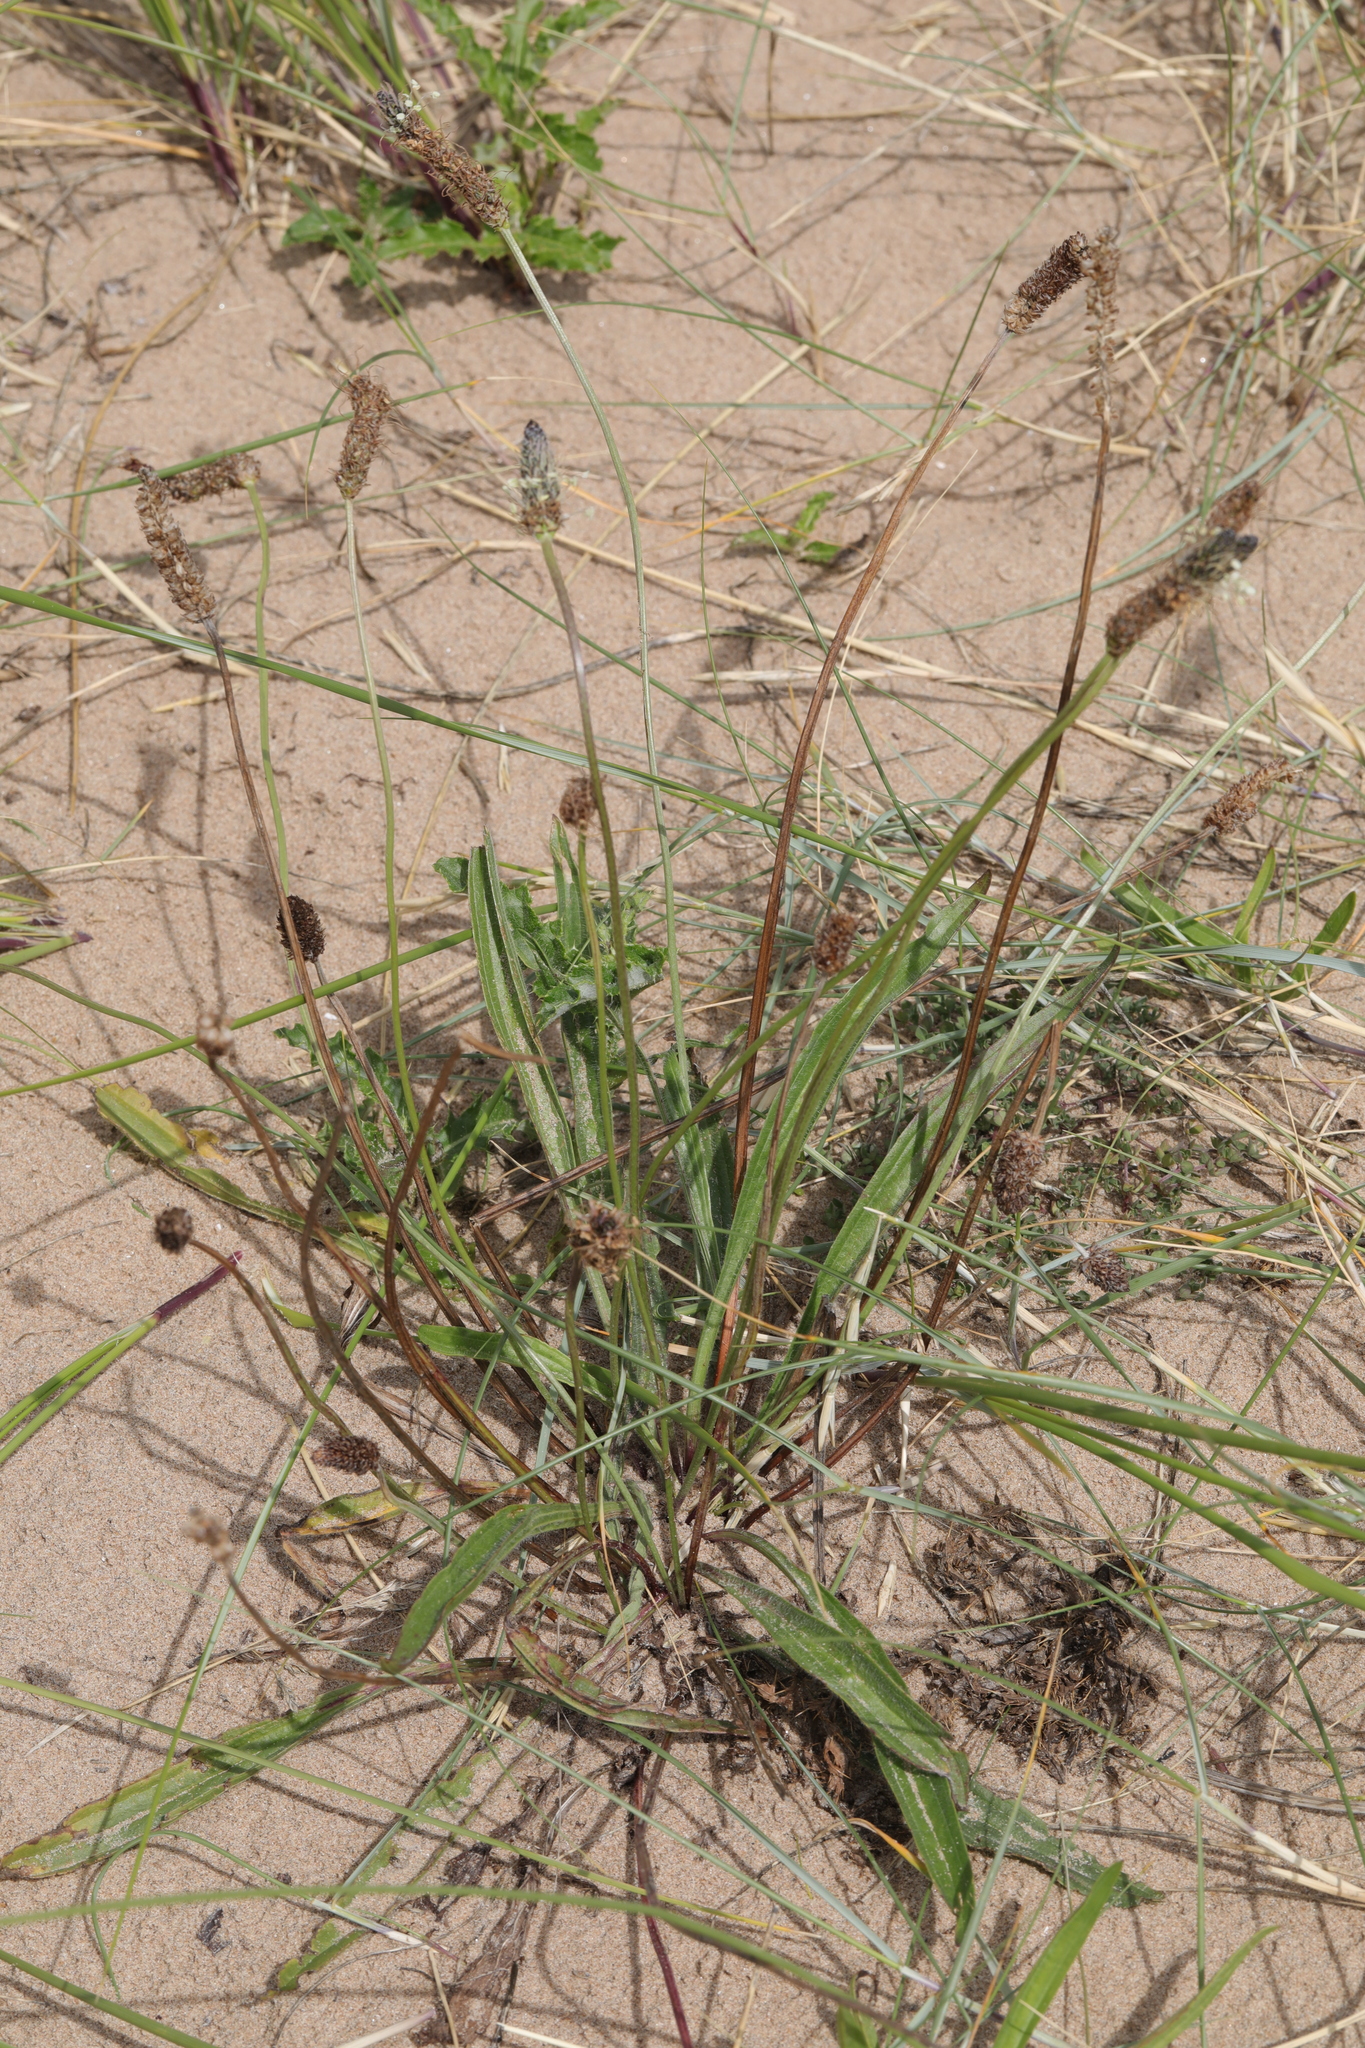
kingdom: Plantae
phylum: Tracheophyta
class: Magnoliopsida
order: Lamiales
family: Plantaginaceae
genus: Plantago
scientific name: Plantago lanceolata
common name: Ribwort plantain
